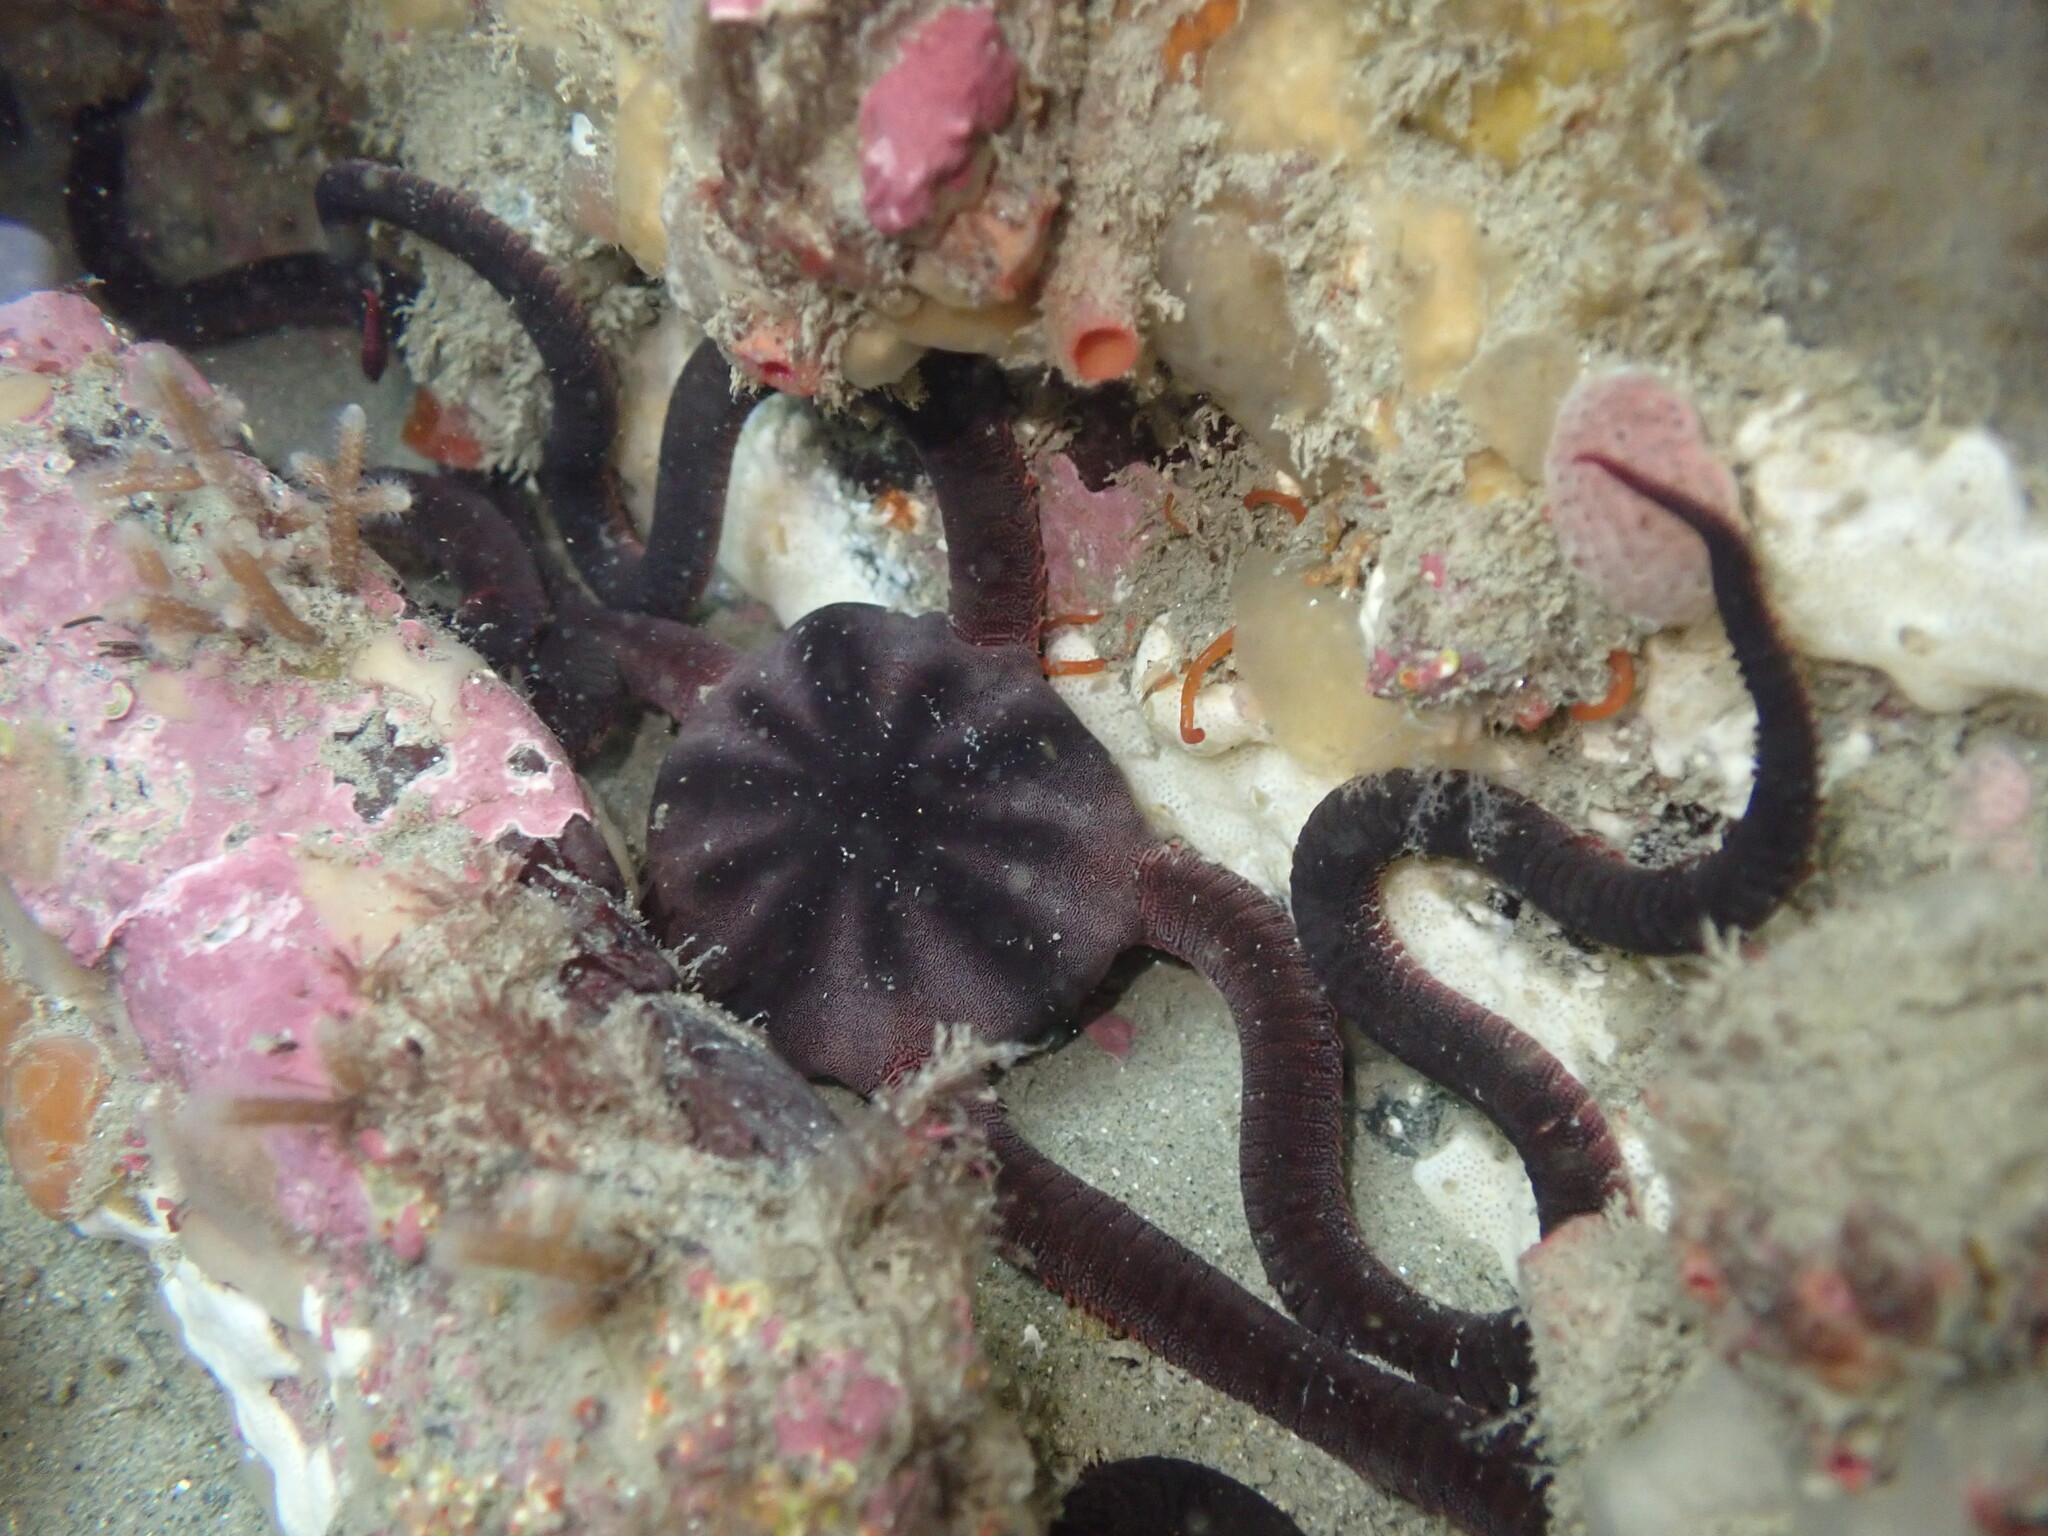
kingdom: Animalia
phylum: Echinodermata
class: Ophiuroidea
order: Ophiacanthida
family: Ophiodermatidae
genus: Ophiopsammus
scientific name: Ophiopsammus maculata
